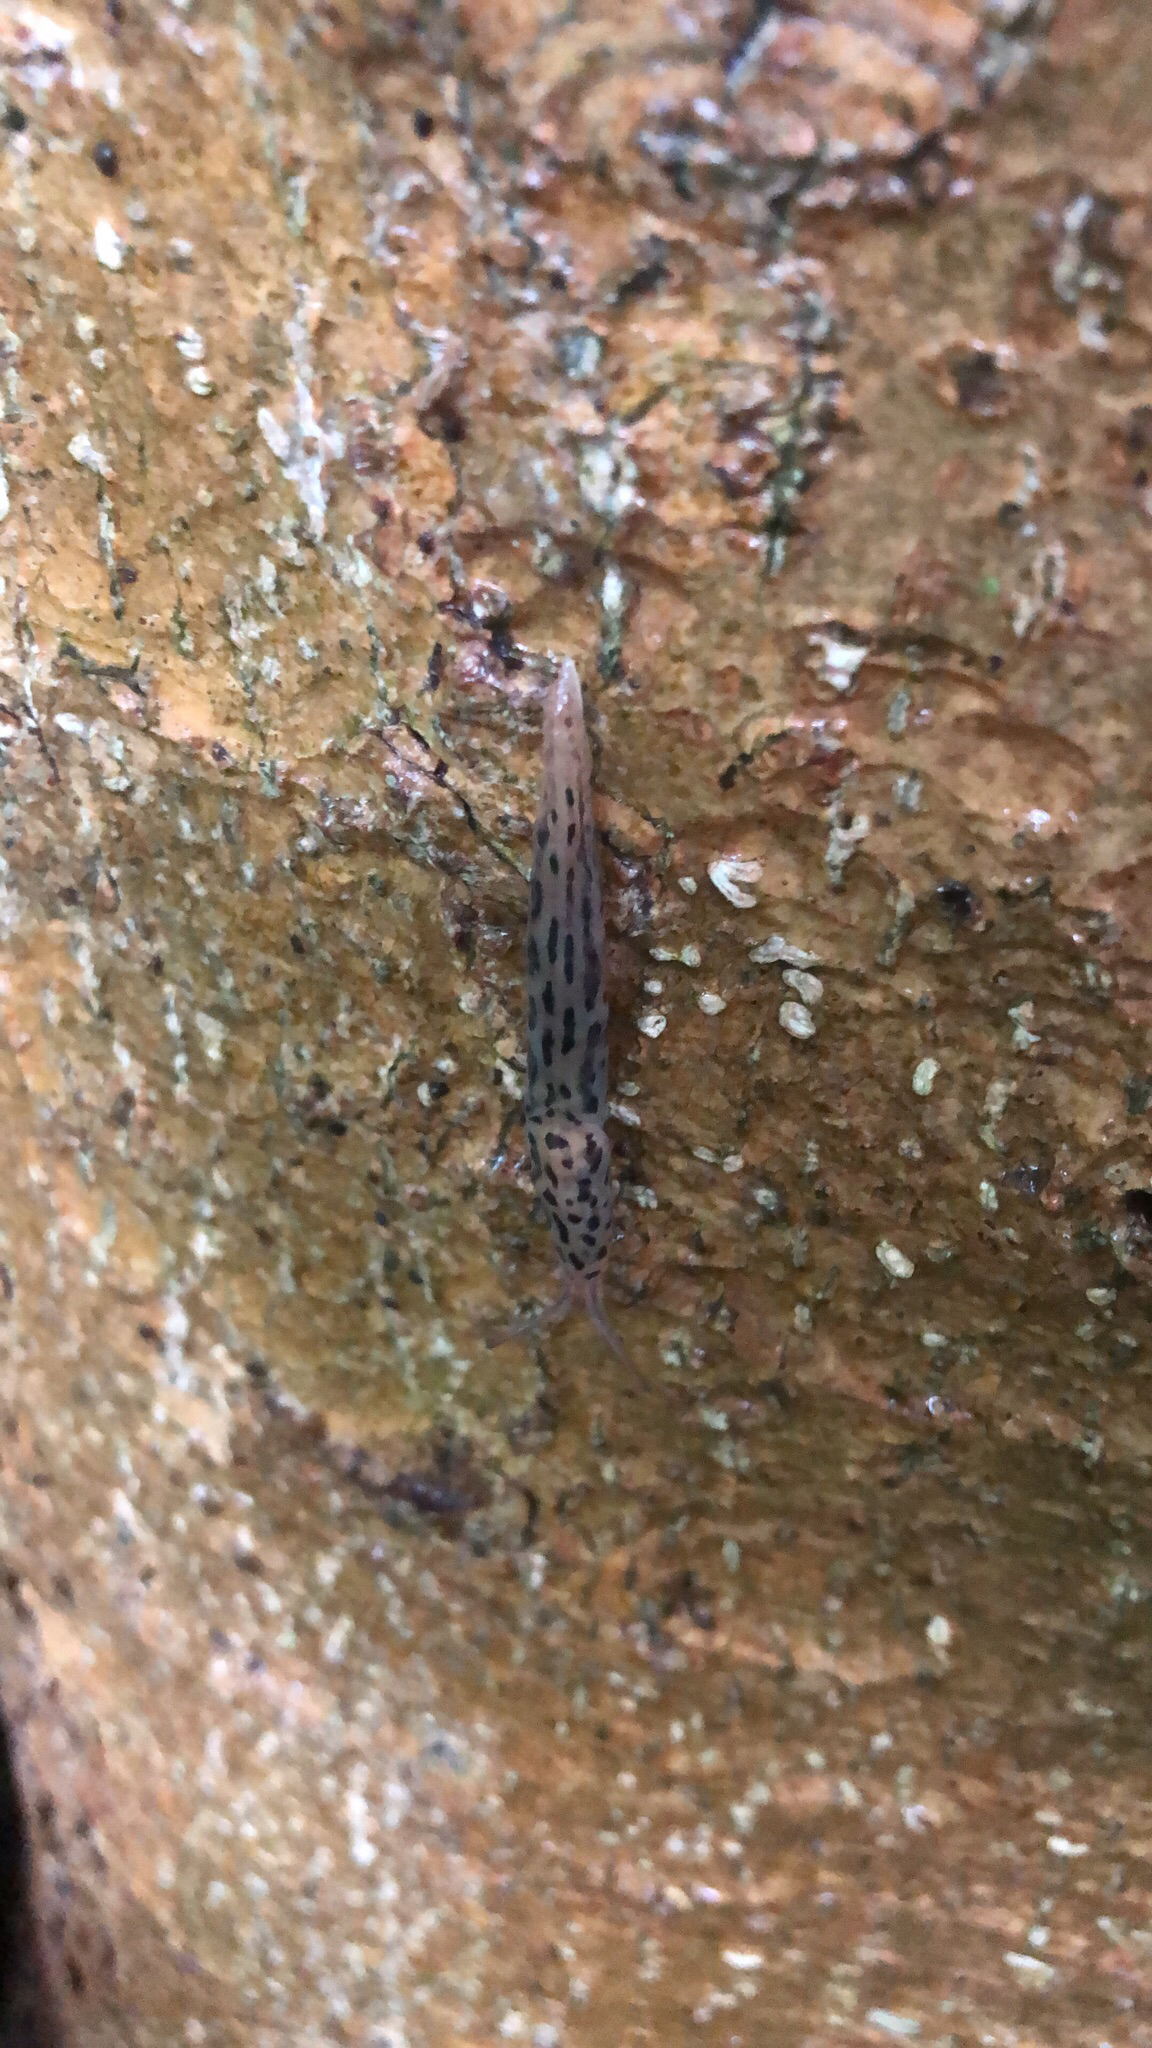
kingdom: Animalia
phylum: Mollusca
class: Gastropoda
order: Stylommatophora
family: Limacidae
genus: Limax
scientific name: Limax maximus
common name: Great grey slug
